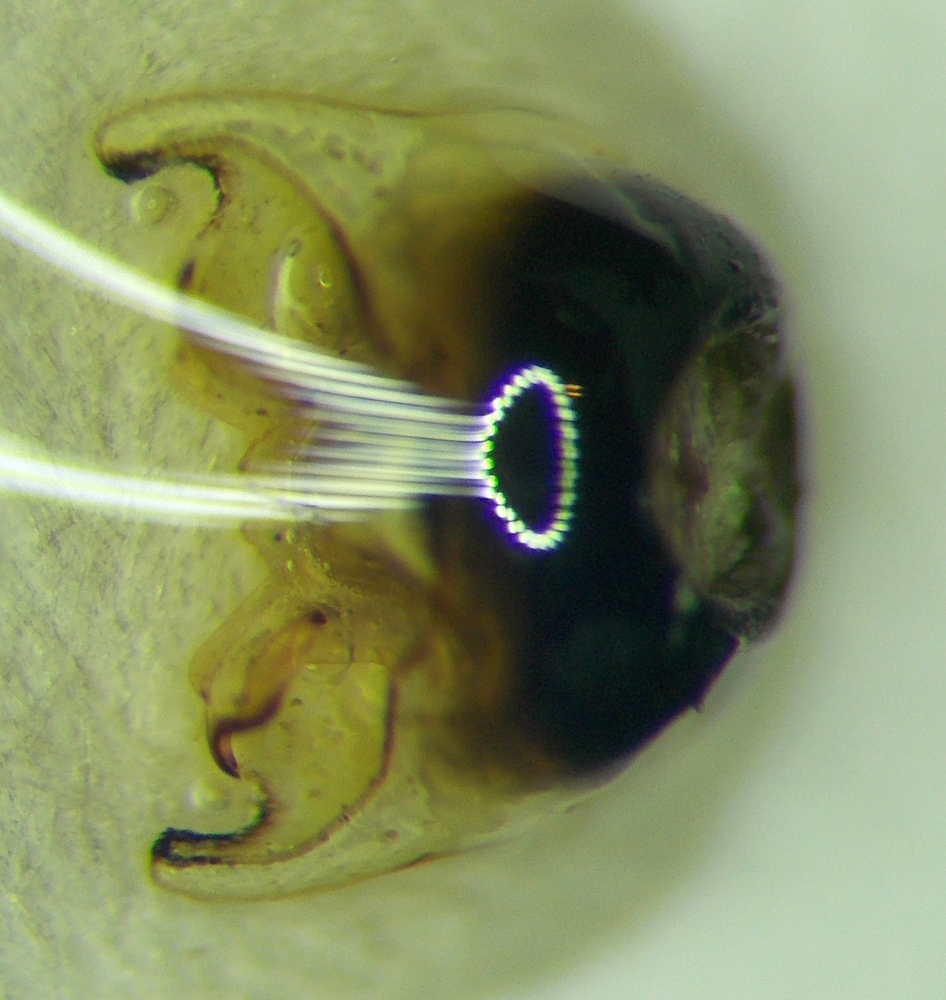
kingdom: Animalia
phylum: Arthropoda
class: Insecta
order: Hemiptera
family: Pentatomidae
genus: Antheminia
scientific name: Antheminia lunulata
